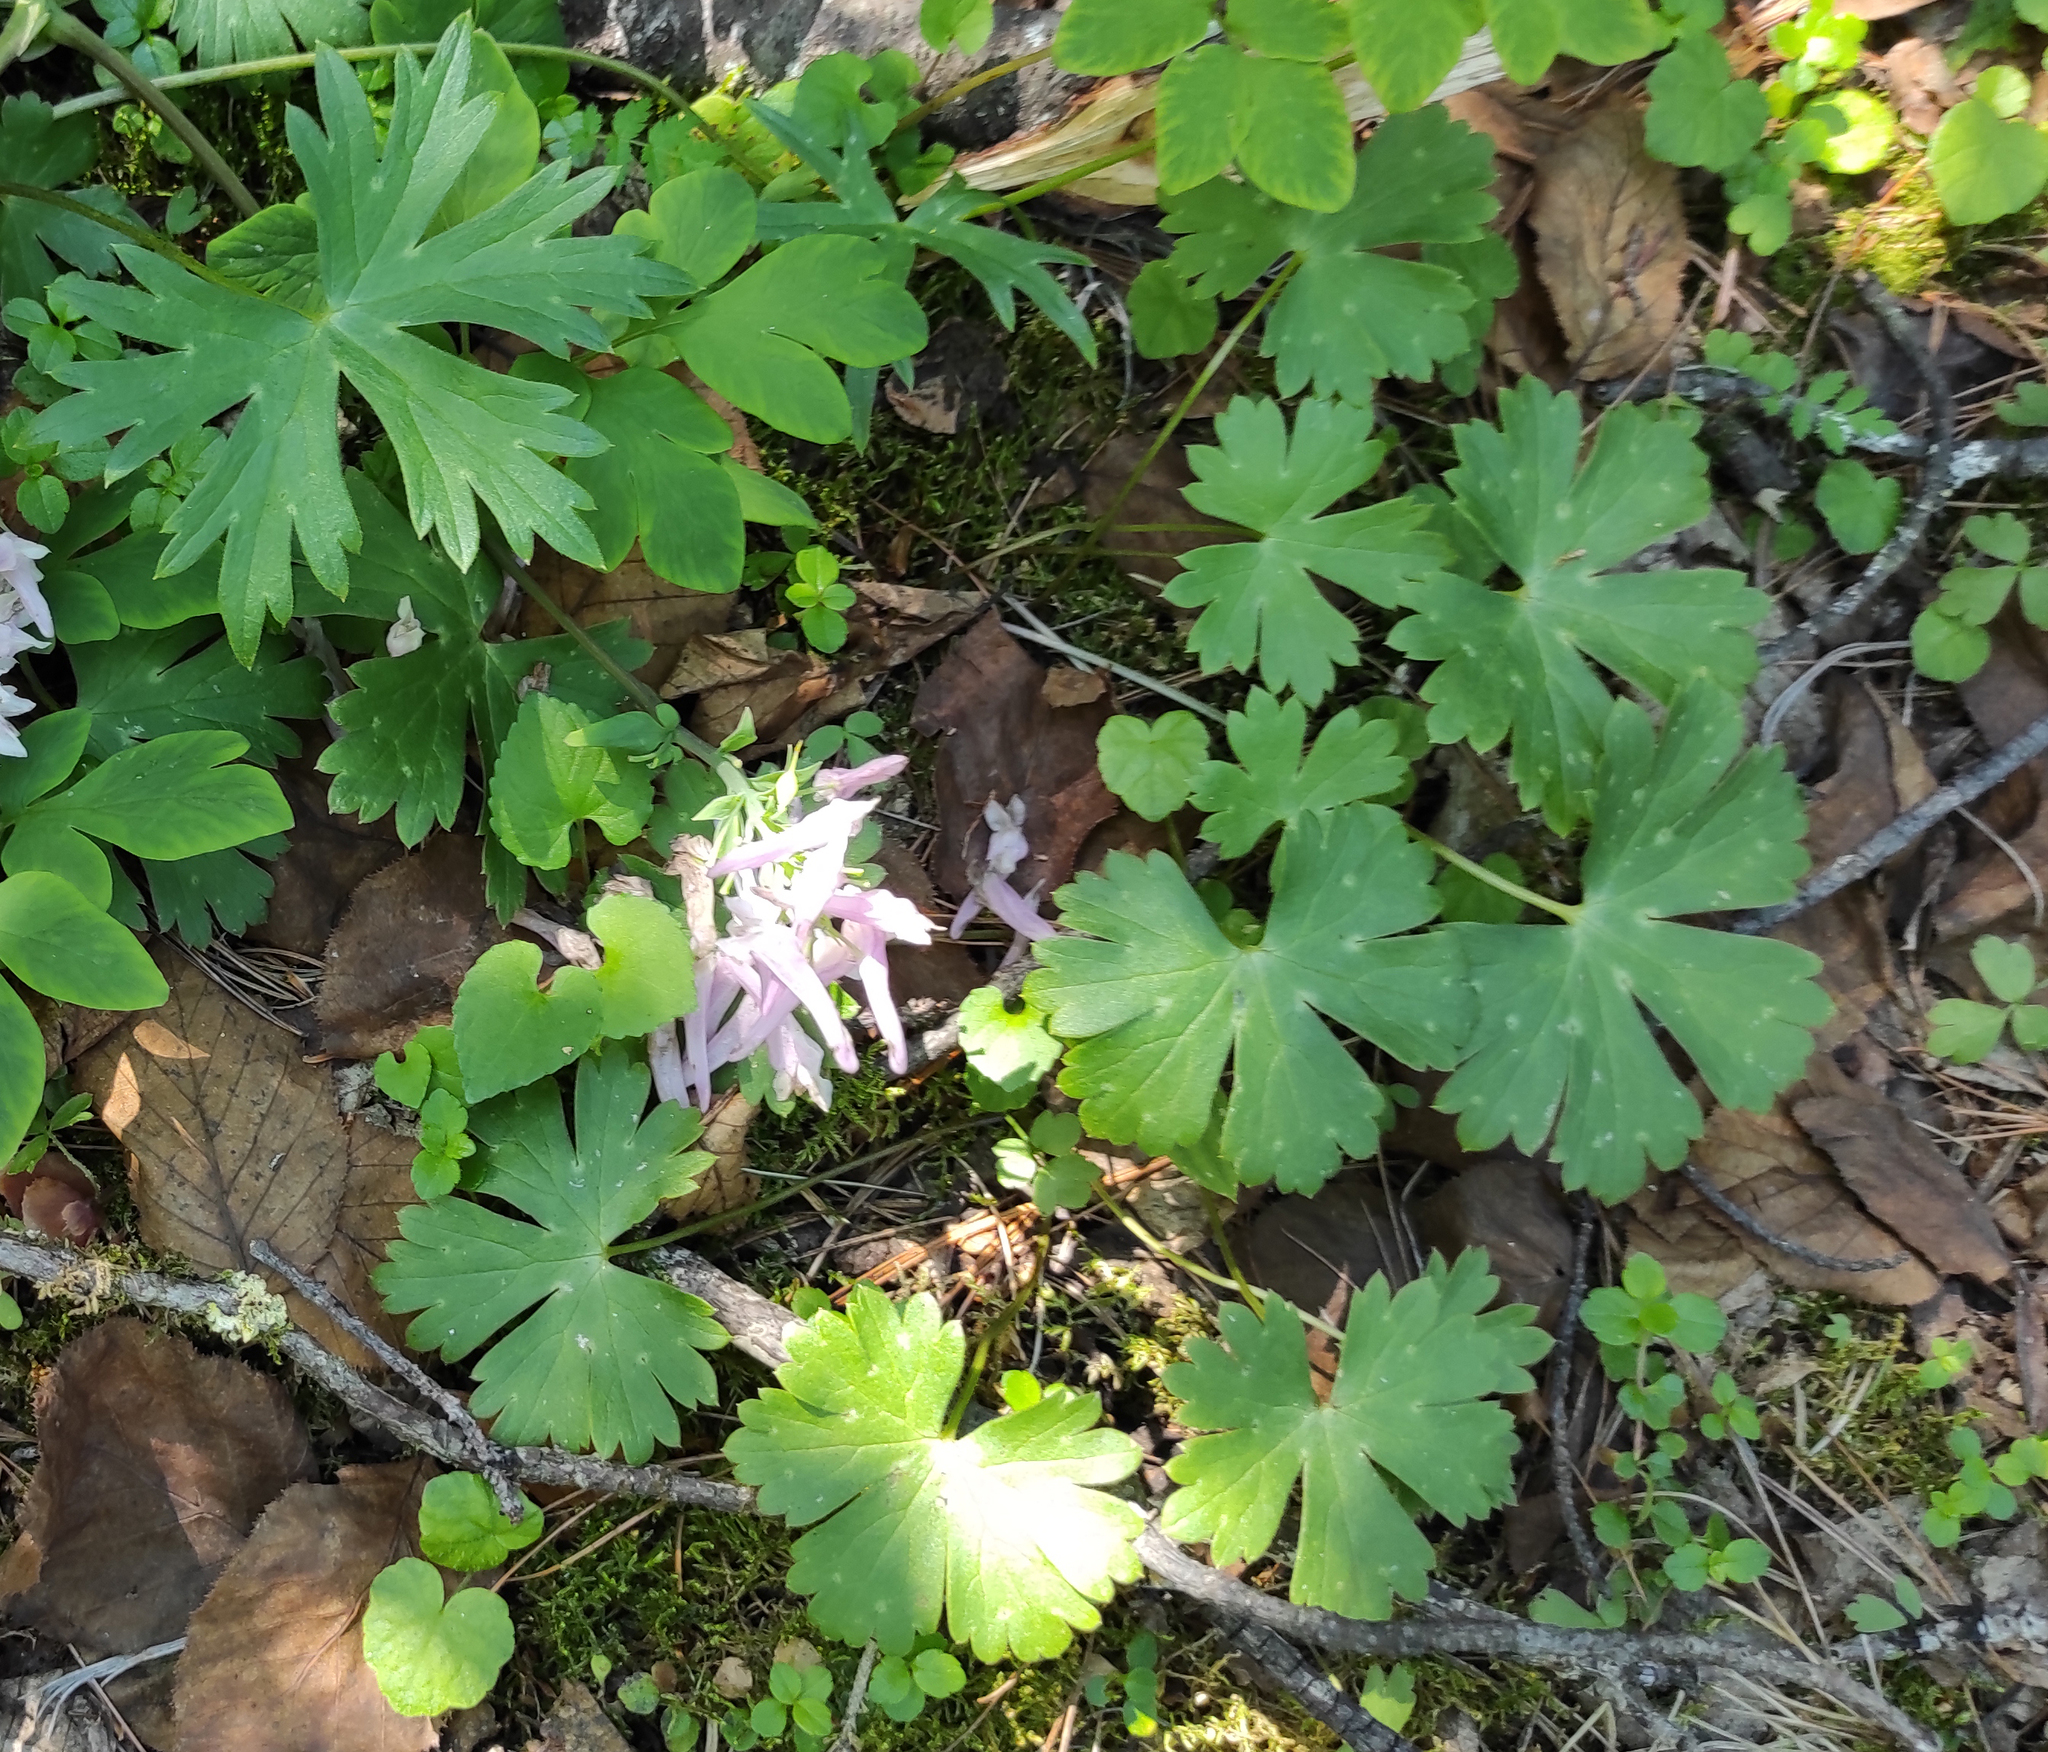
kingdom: Plantae
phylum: Tracheophyta
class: Magnoliopsida
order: Ranunculales
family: Papaveraceae
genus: Corydalis
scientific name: Corydalis paeoniifolia
